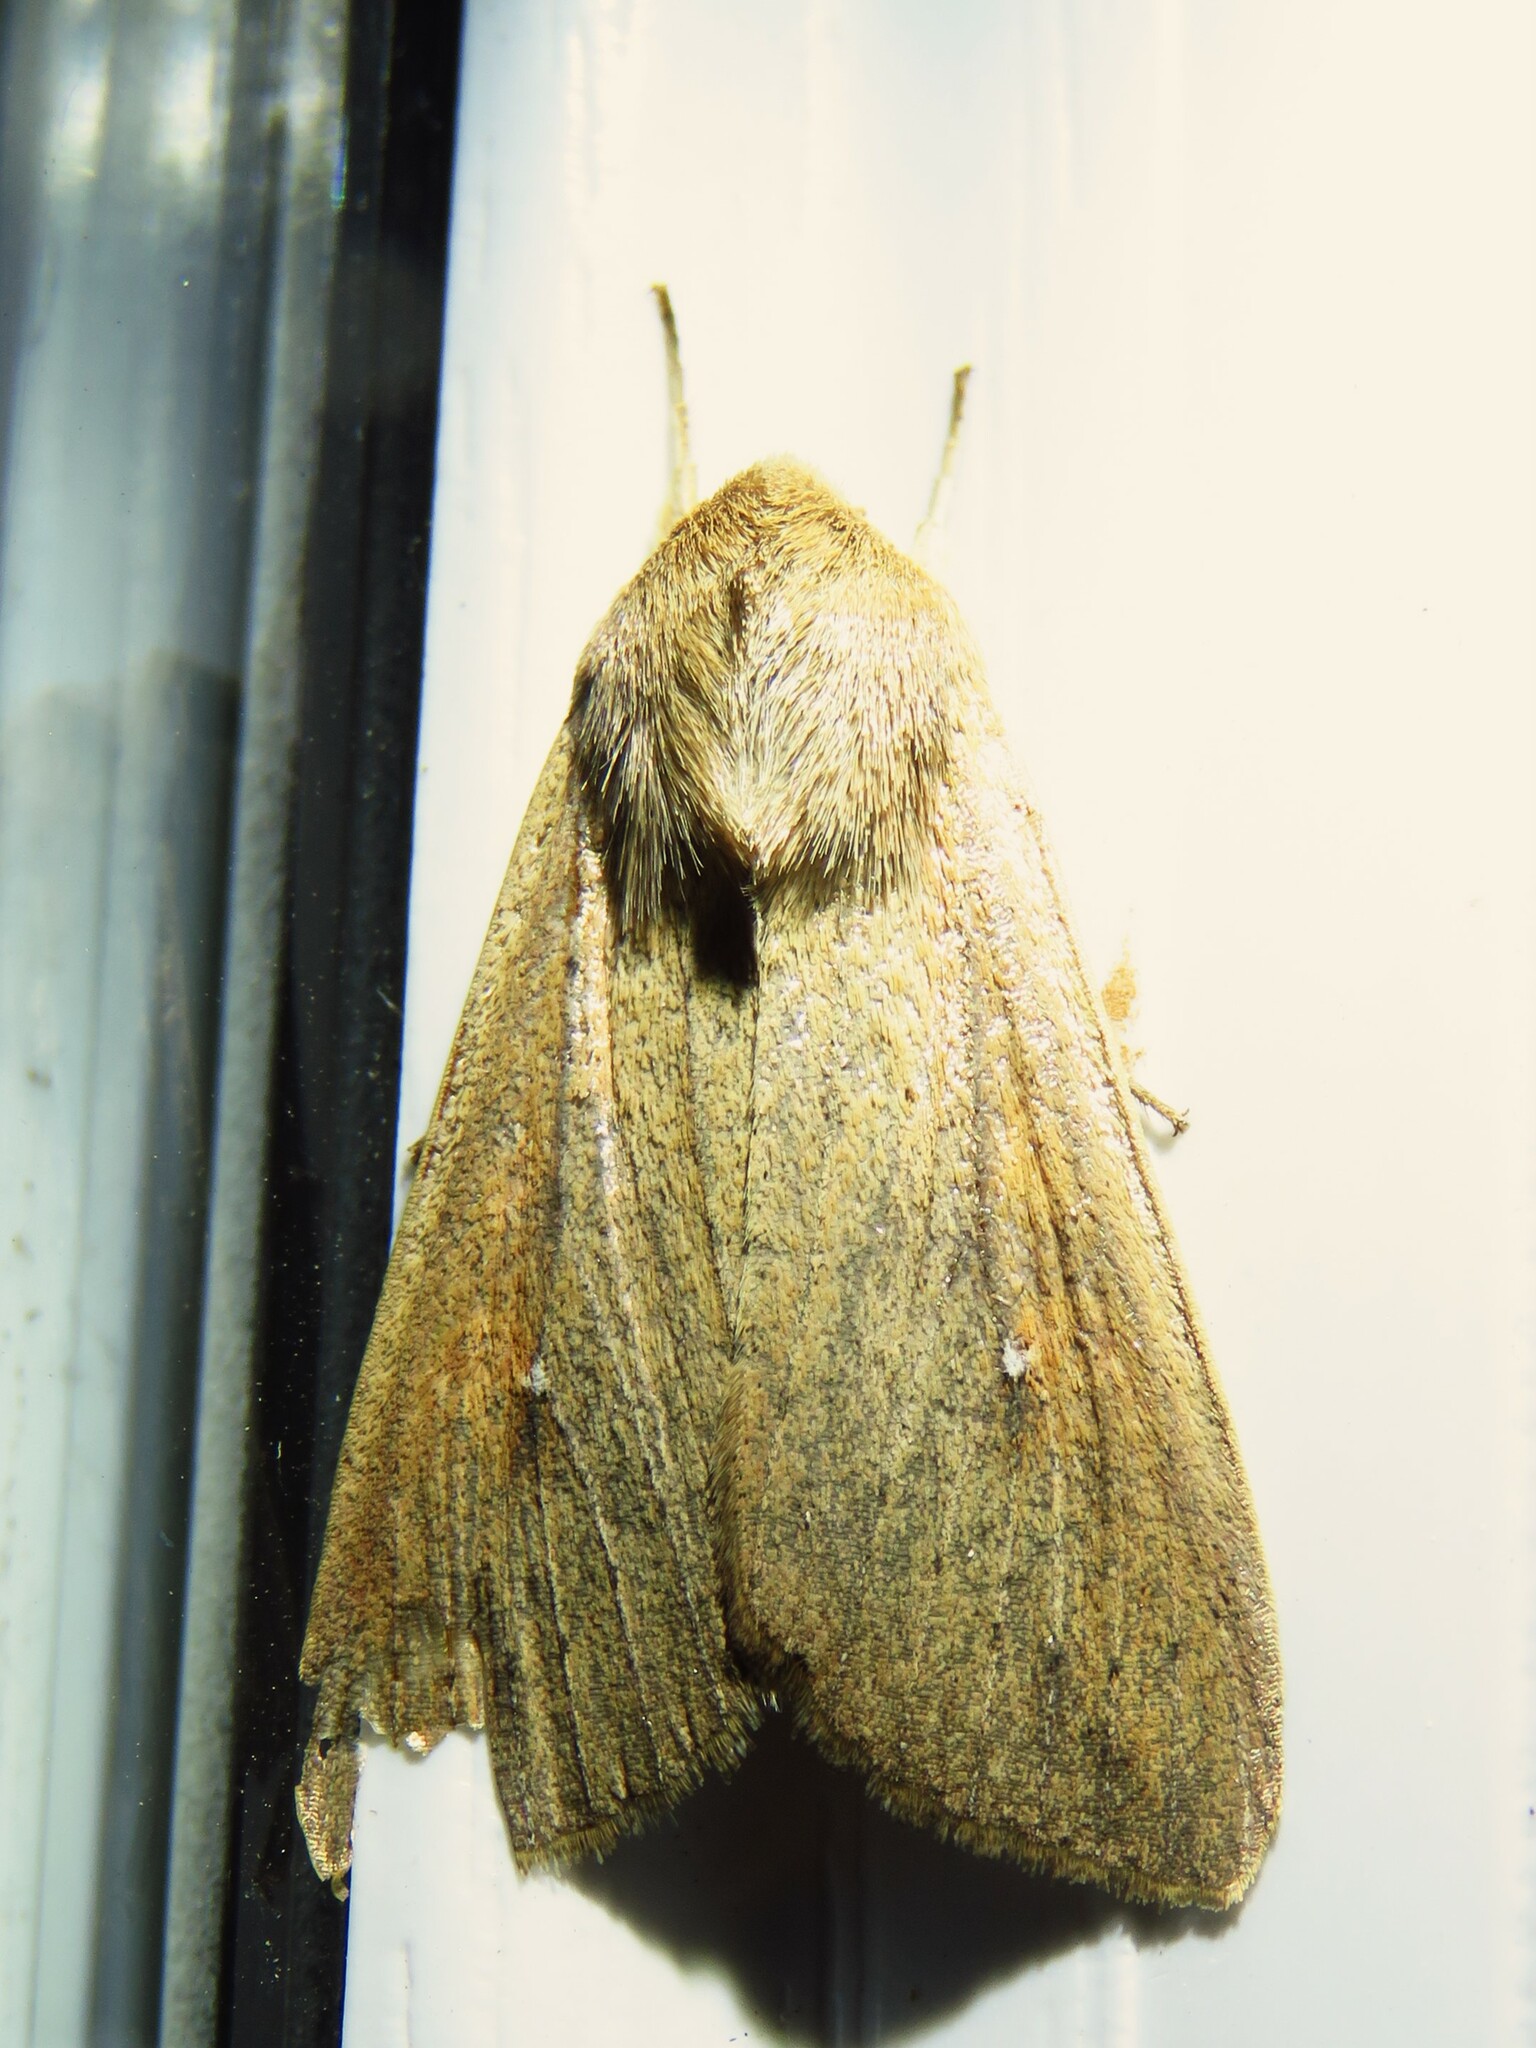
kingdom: Animalia
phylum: Arthropoda
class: Insecta
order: Lepidoptera
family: Noctuidae
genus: Mythimna
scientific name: Mythimna unipuncta
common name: White-speck
